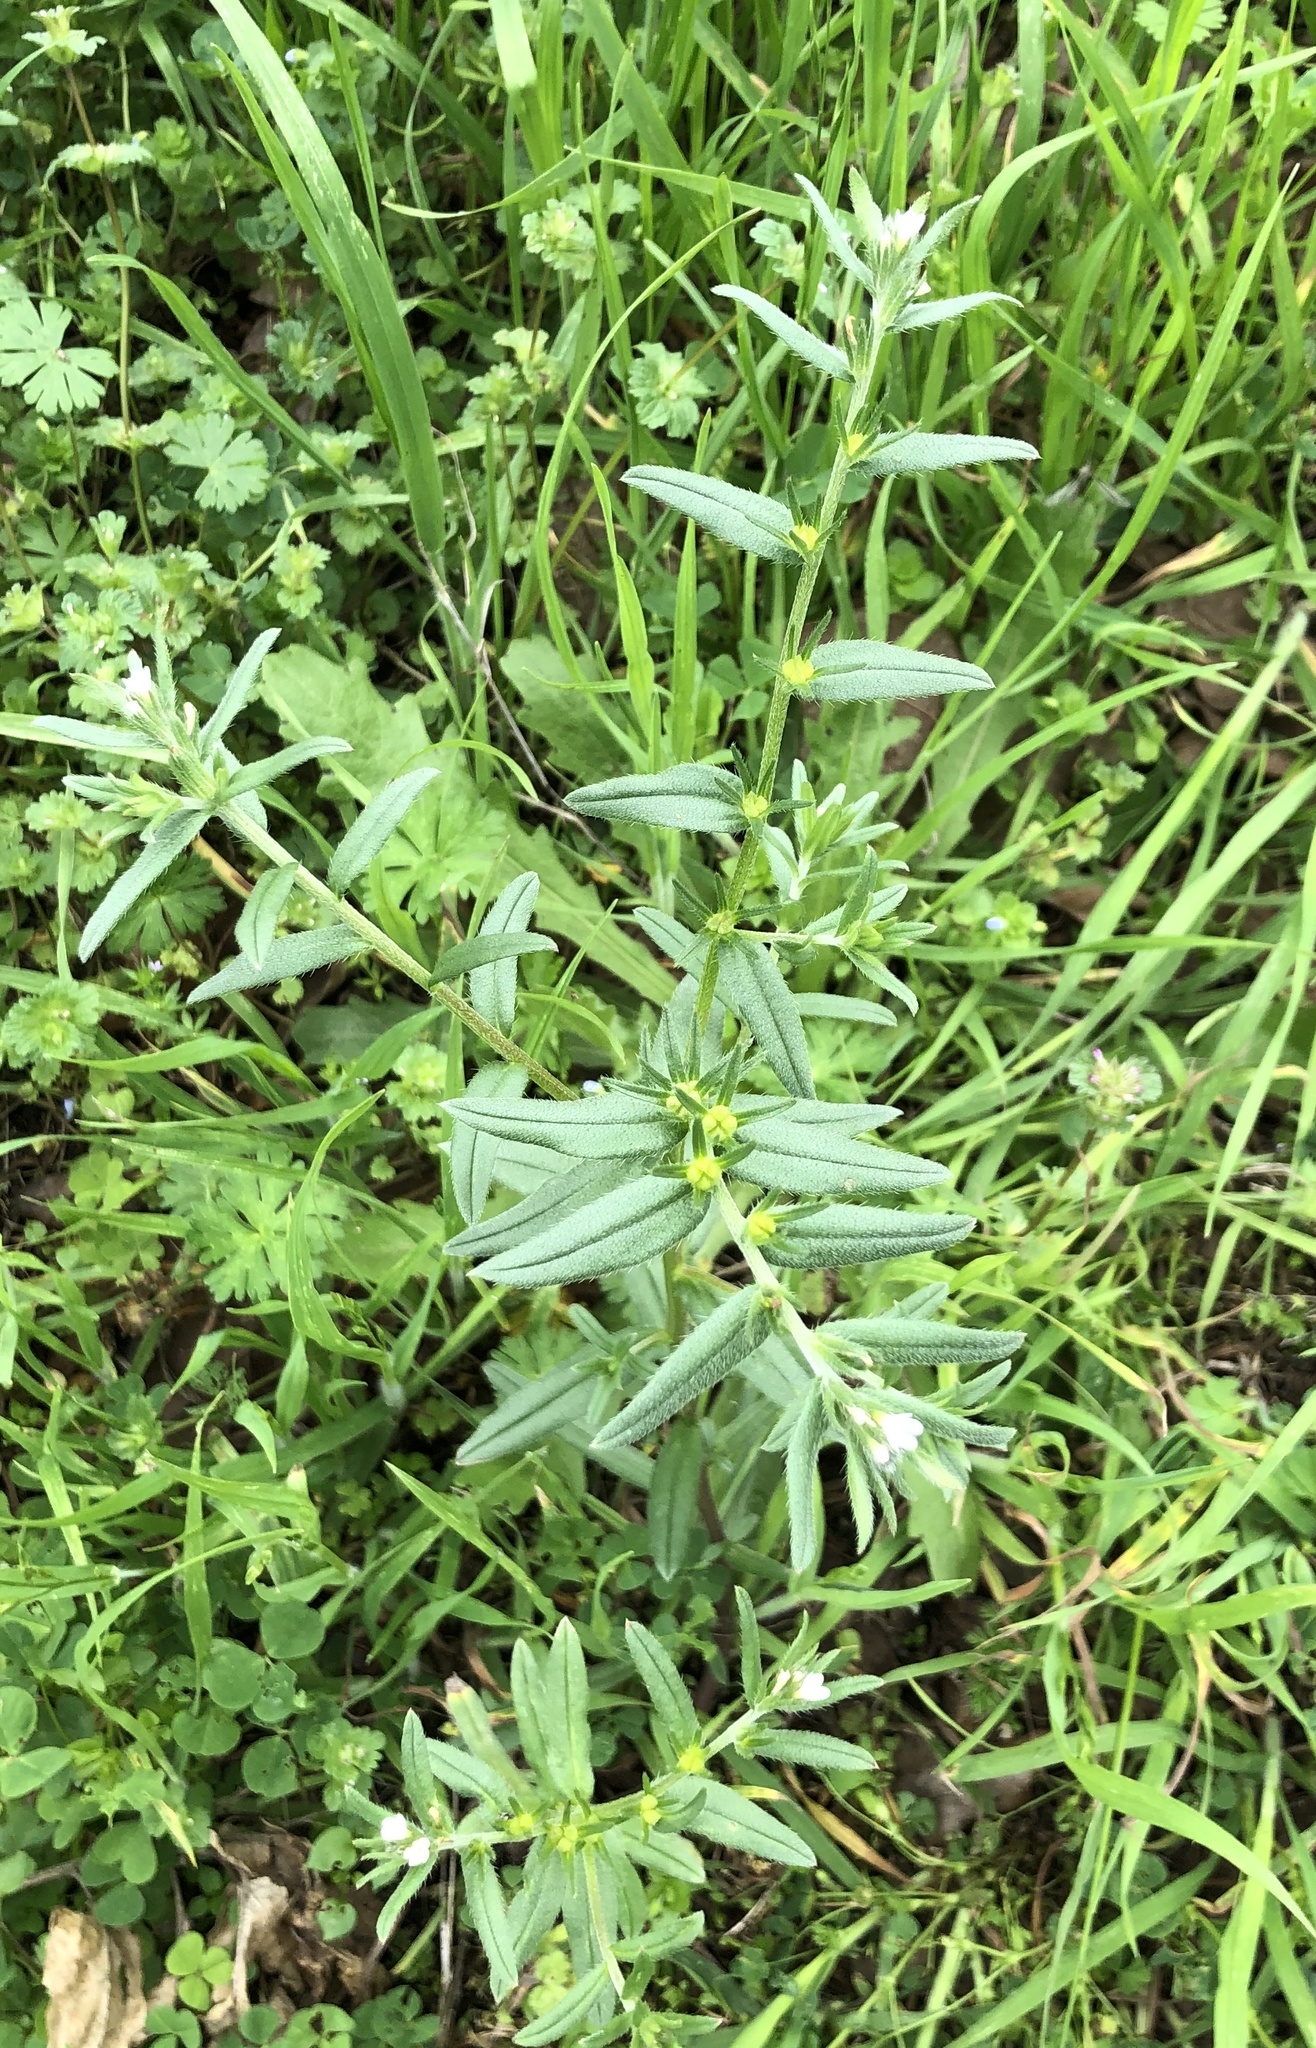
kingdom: Plantae
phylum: Tracheophyta
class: Magnoliopsida
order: Boraginales
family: Boraginaceae
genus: Buglossoides
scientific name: Buglossoides arvensis
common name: Corn gromwell
